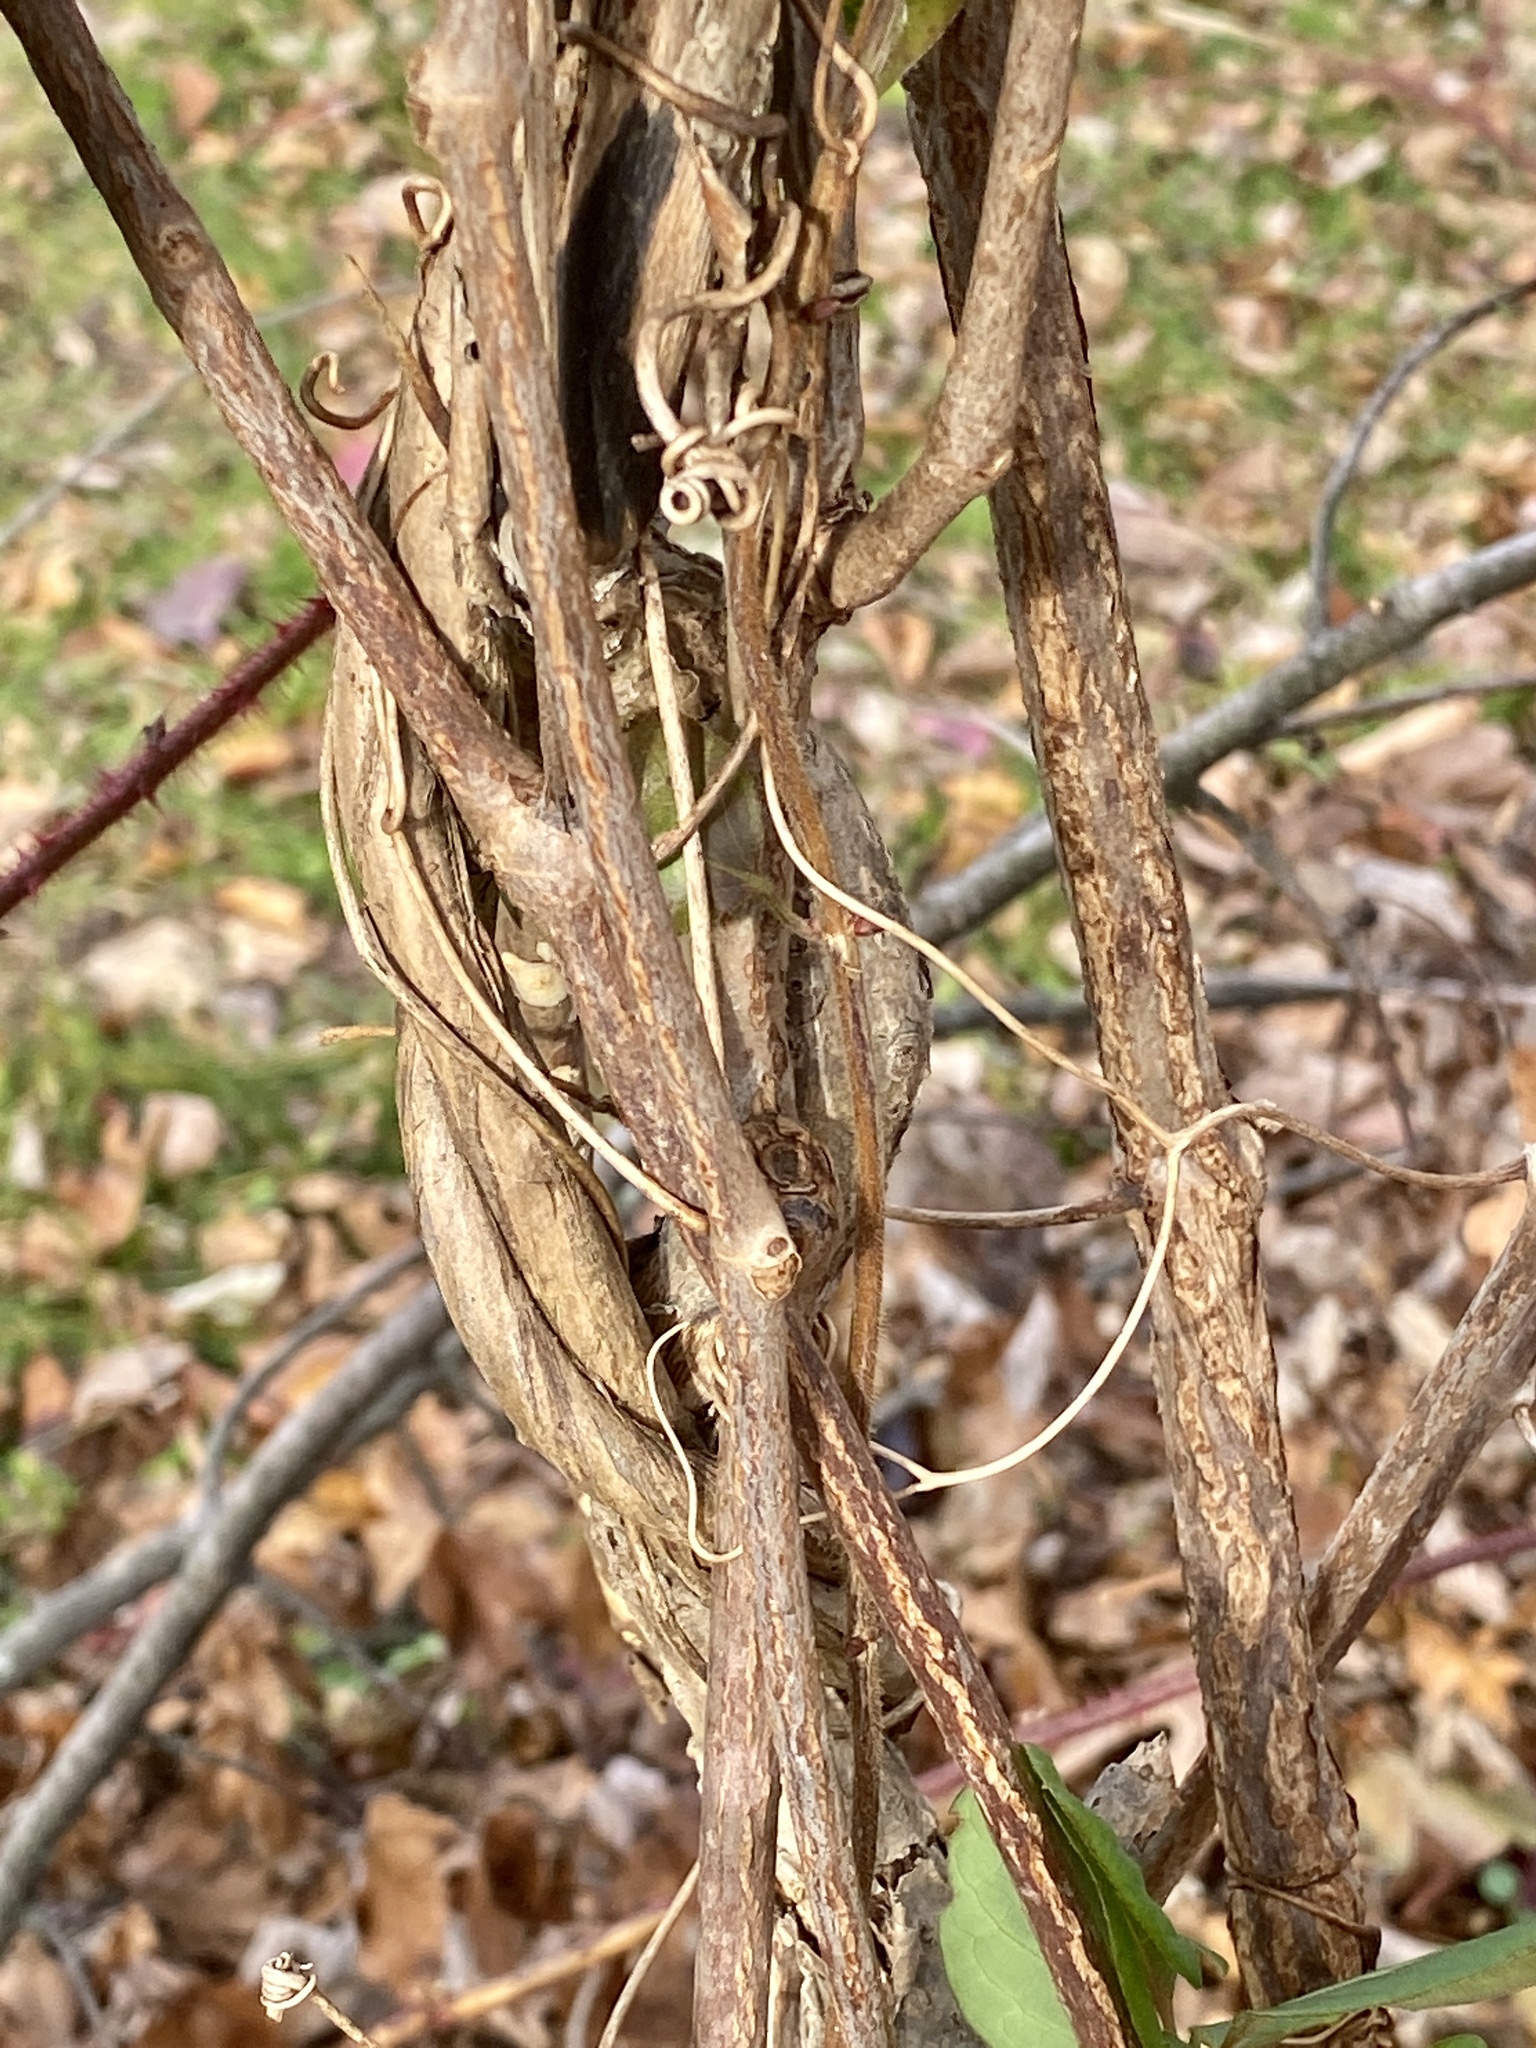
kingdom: Plantae
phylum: Tracheophyta
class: Magnoliopsida
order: Celastrales
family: Celastraceae
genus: Celastrus
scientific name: Celastrus orbiculatus
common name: Oriental bittersweet
